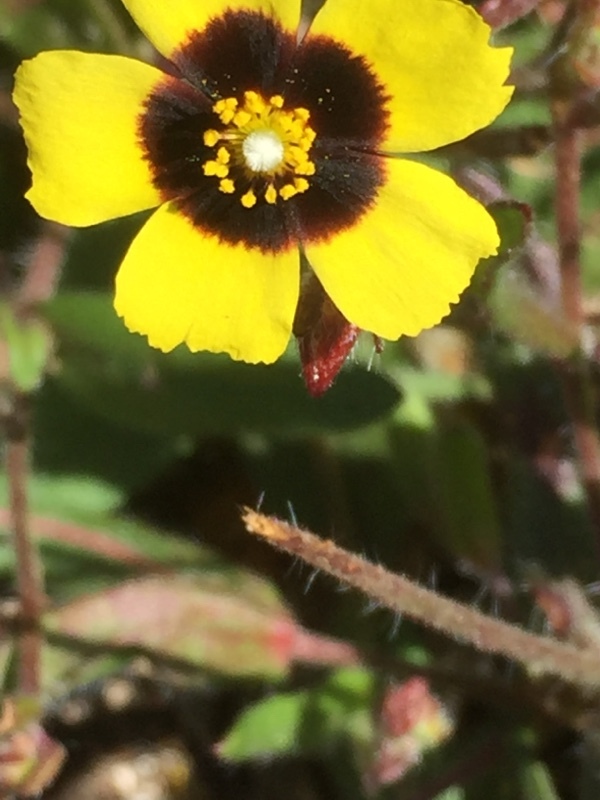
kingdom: Plantae
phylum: Tracheophyta
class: Magnoliopsida
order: Malvales
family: Cistaceae
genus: Tuberaria
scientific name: Tuberaria guttata
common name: Spotted rock-rose
